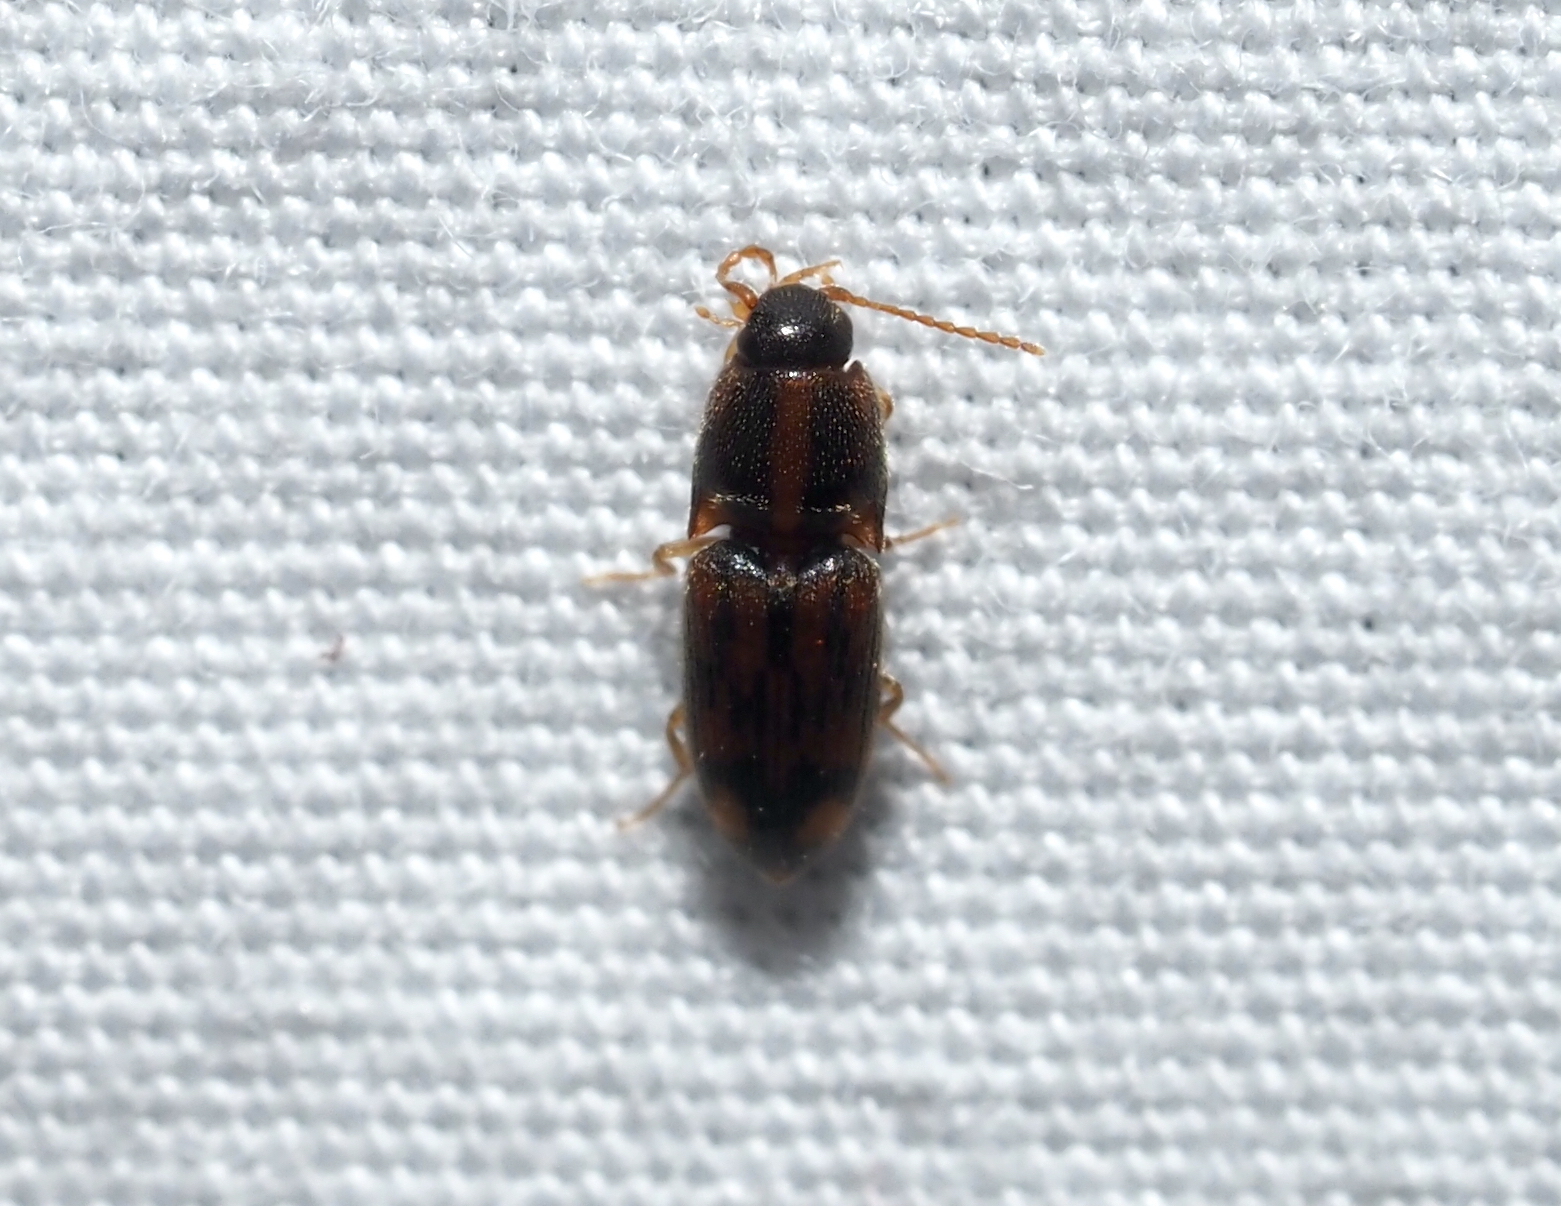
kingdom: Animalia
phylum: Arthropoda
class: Insecta
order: Coleoptera
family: Elateridae
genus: Monocrepidius
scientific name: Monocrepidius bellus
